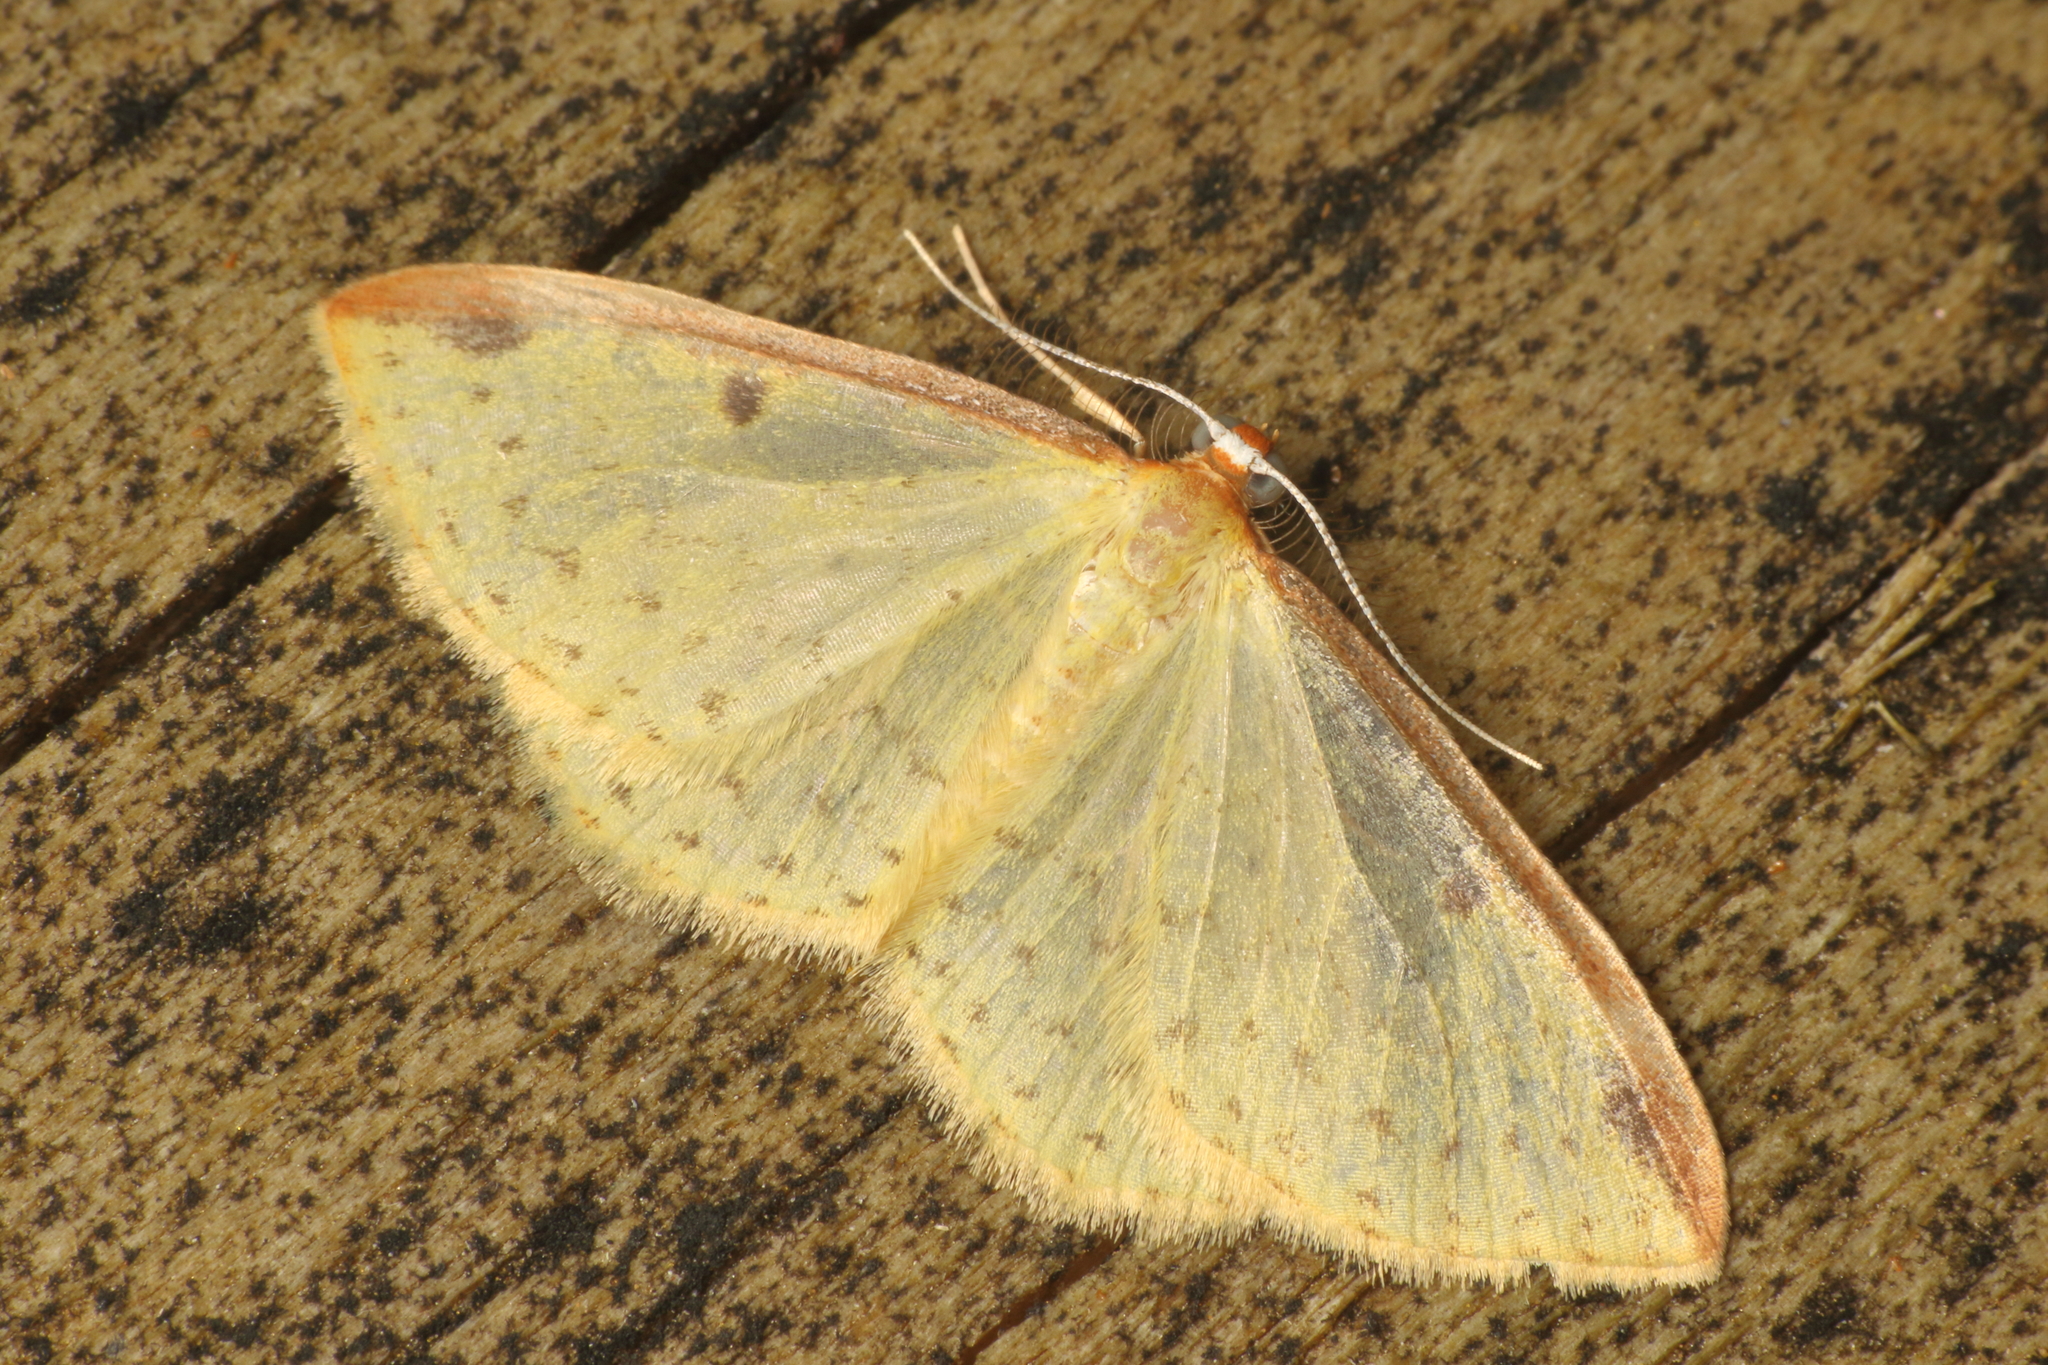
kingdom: Animalia
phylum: Arthropoda
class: Insecta
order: Lepidoptera
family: Geometridae
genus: Epiphryne
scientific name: Epiphryne undosata
